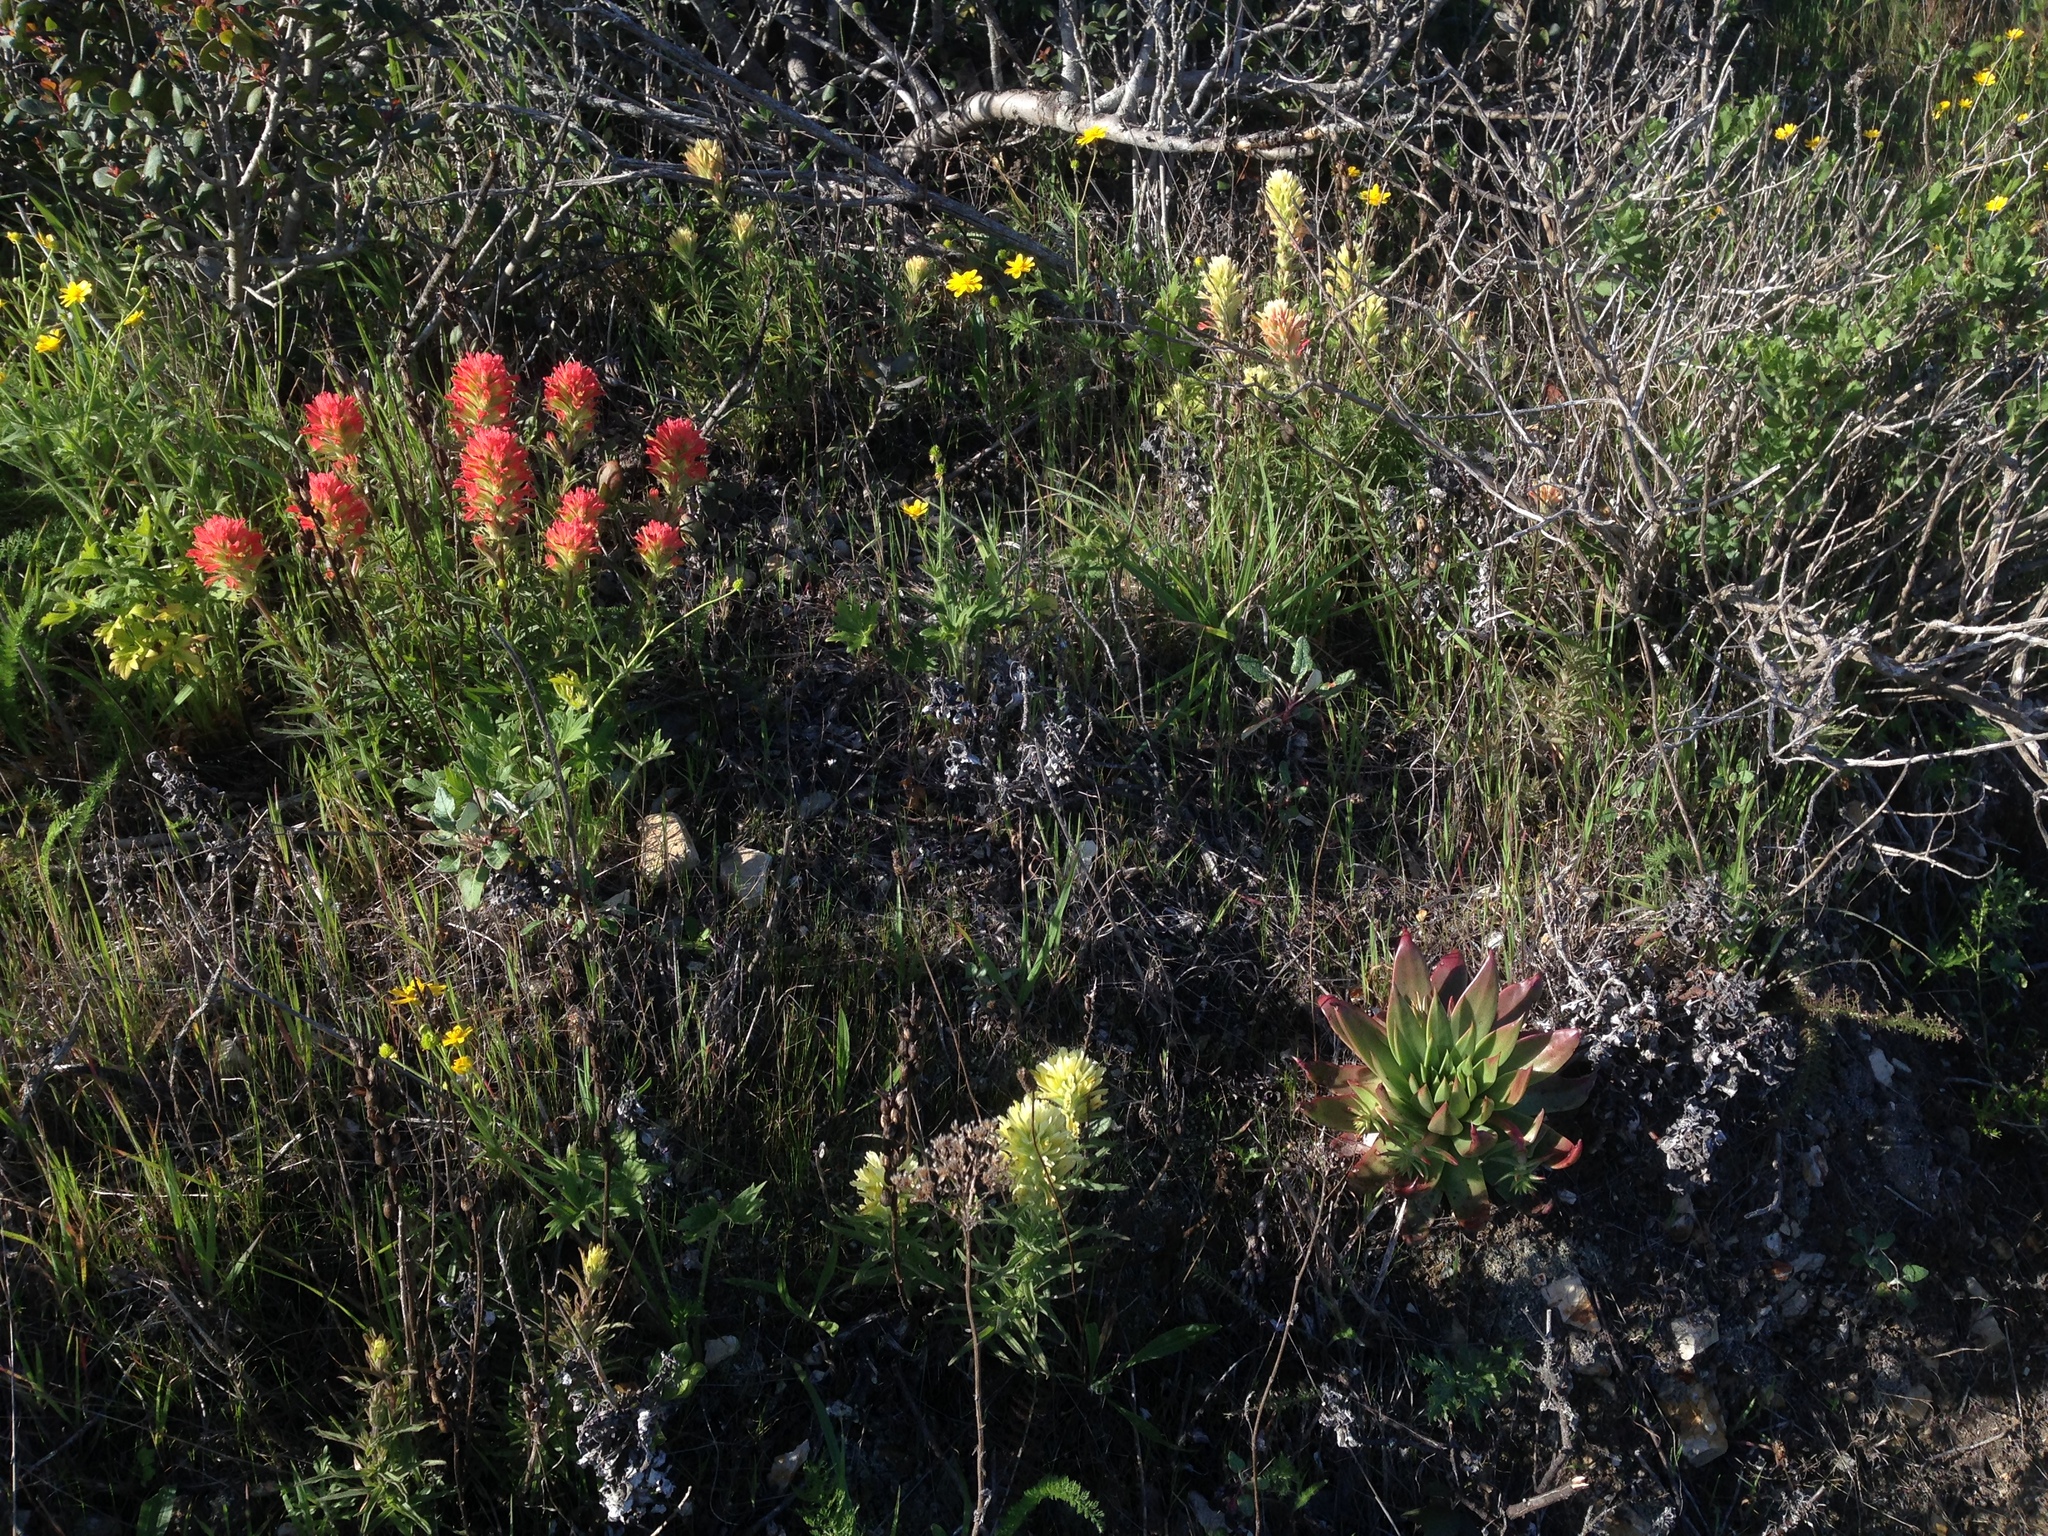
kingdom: Plantae
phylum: Tracheophyta
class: Magnoliopsida
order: Lamiales
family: Orobanchaceae
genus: Castilleja
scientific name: Castilleja affinis
